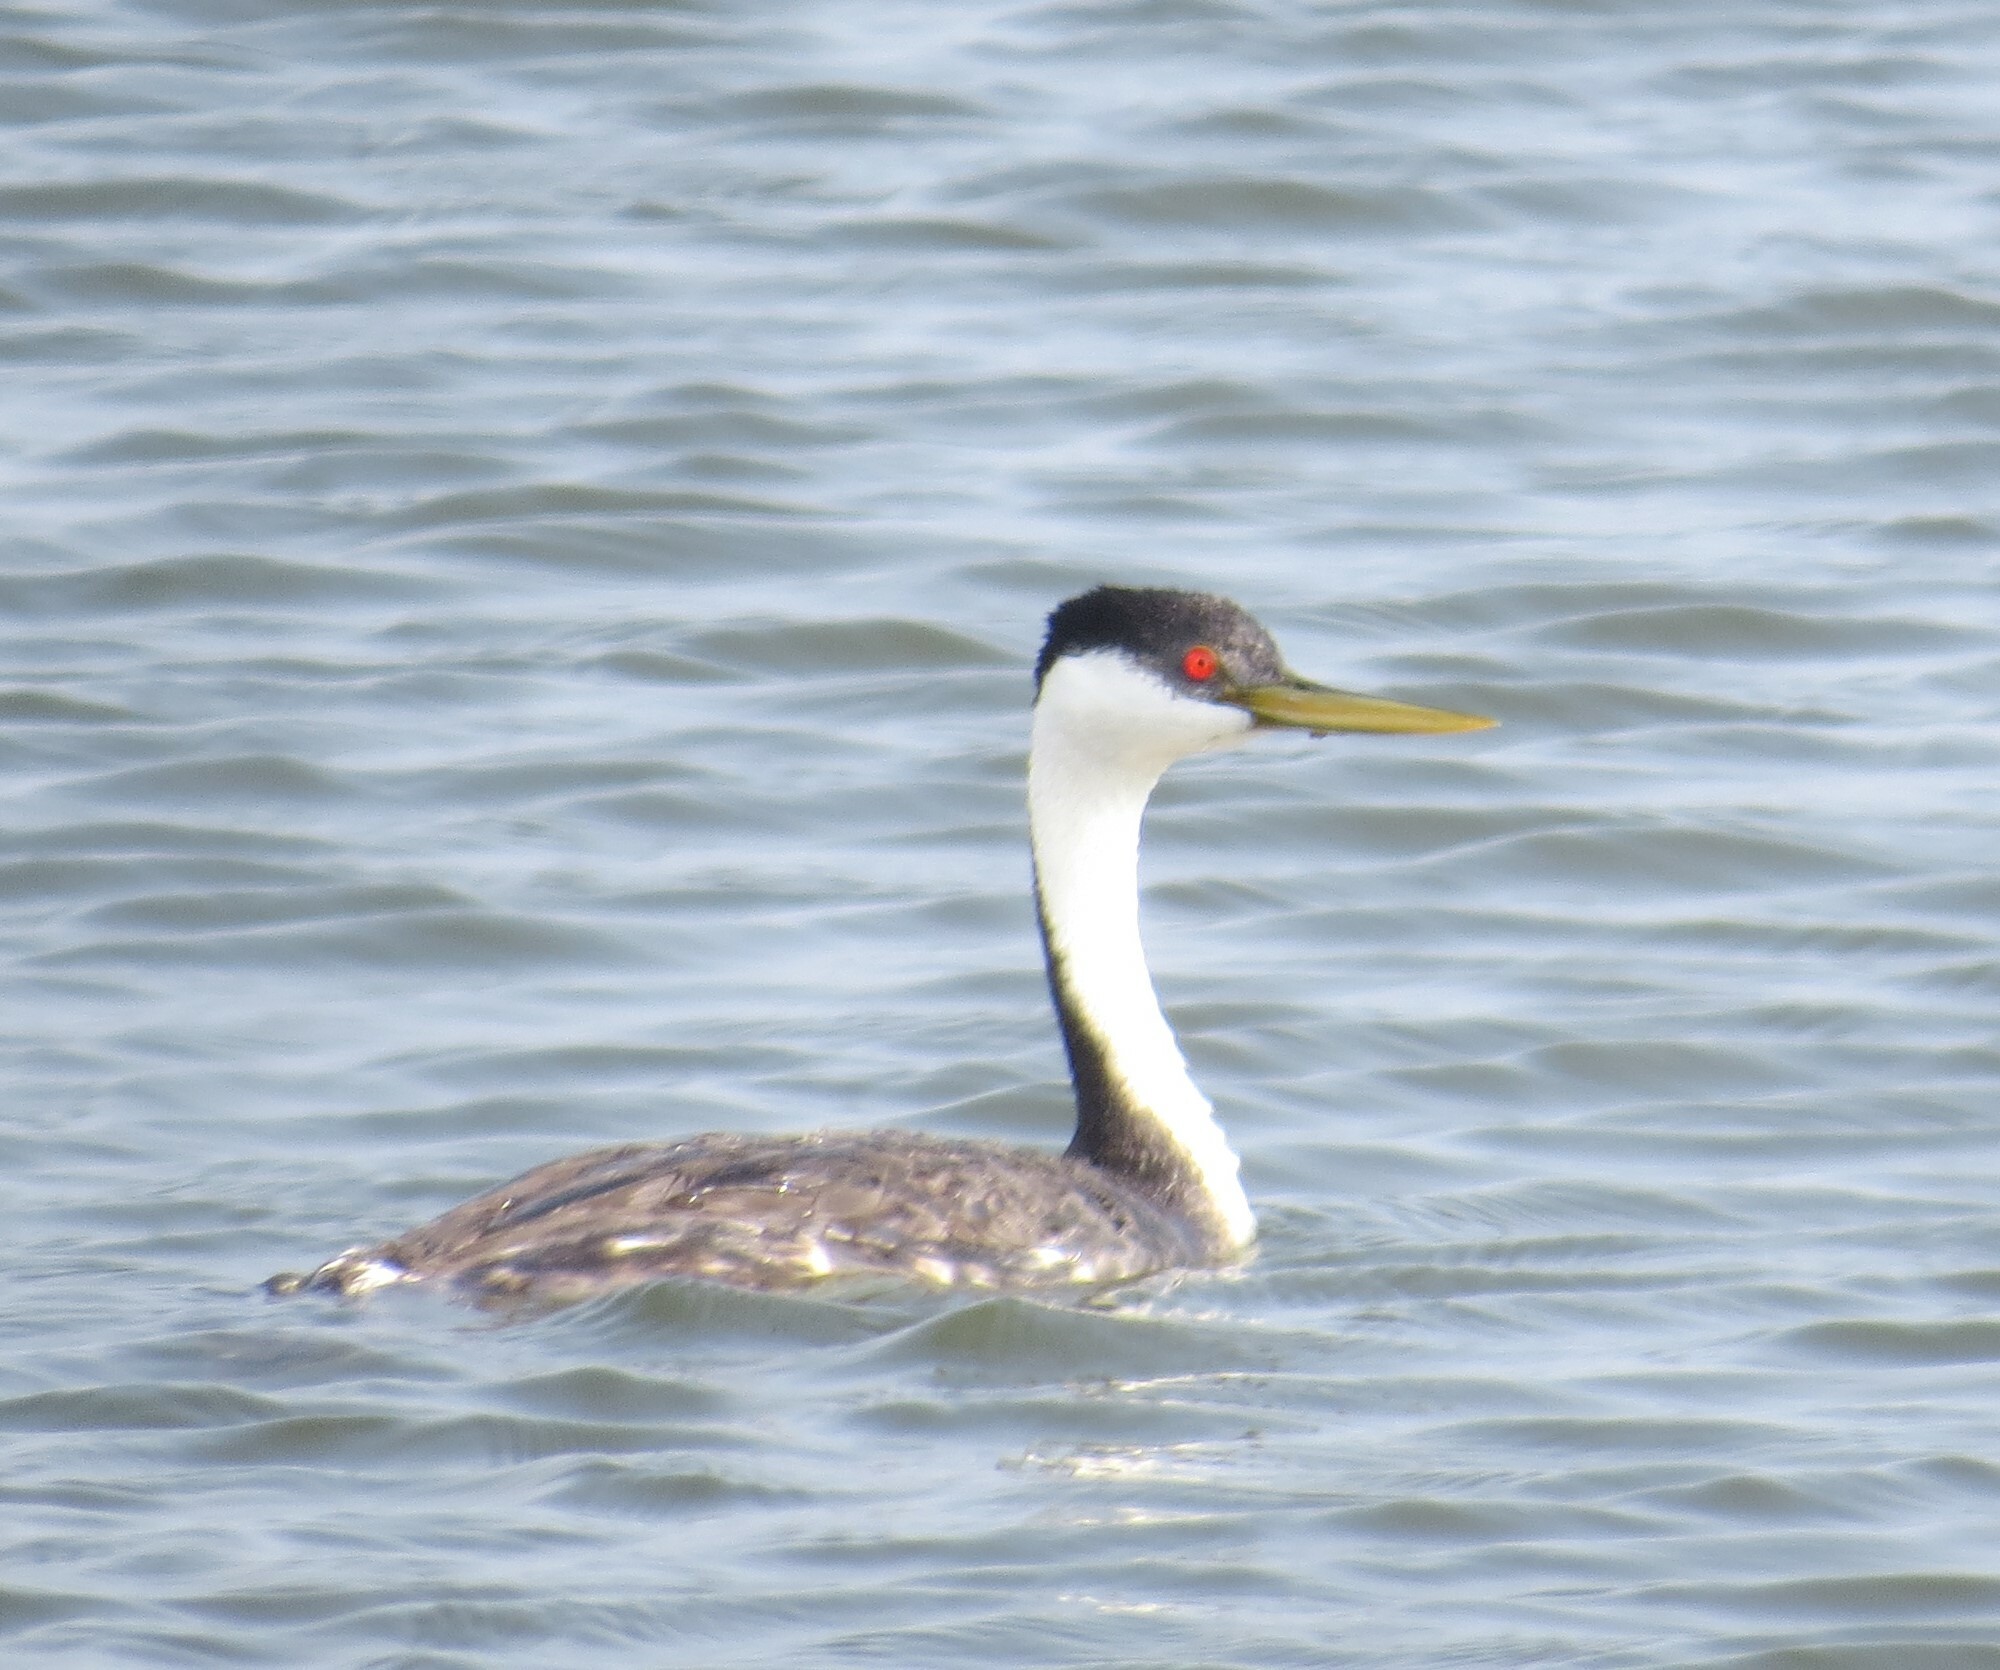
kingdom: Animalia
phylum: Chordata
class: Aves
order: Podicipediformes
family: Podicipedidae
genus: Aechmophorus
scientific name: Aechmophorus occidentalis
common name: Western grebe
